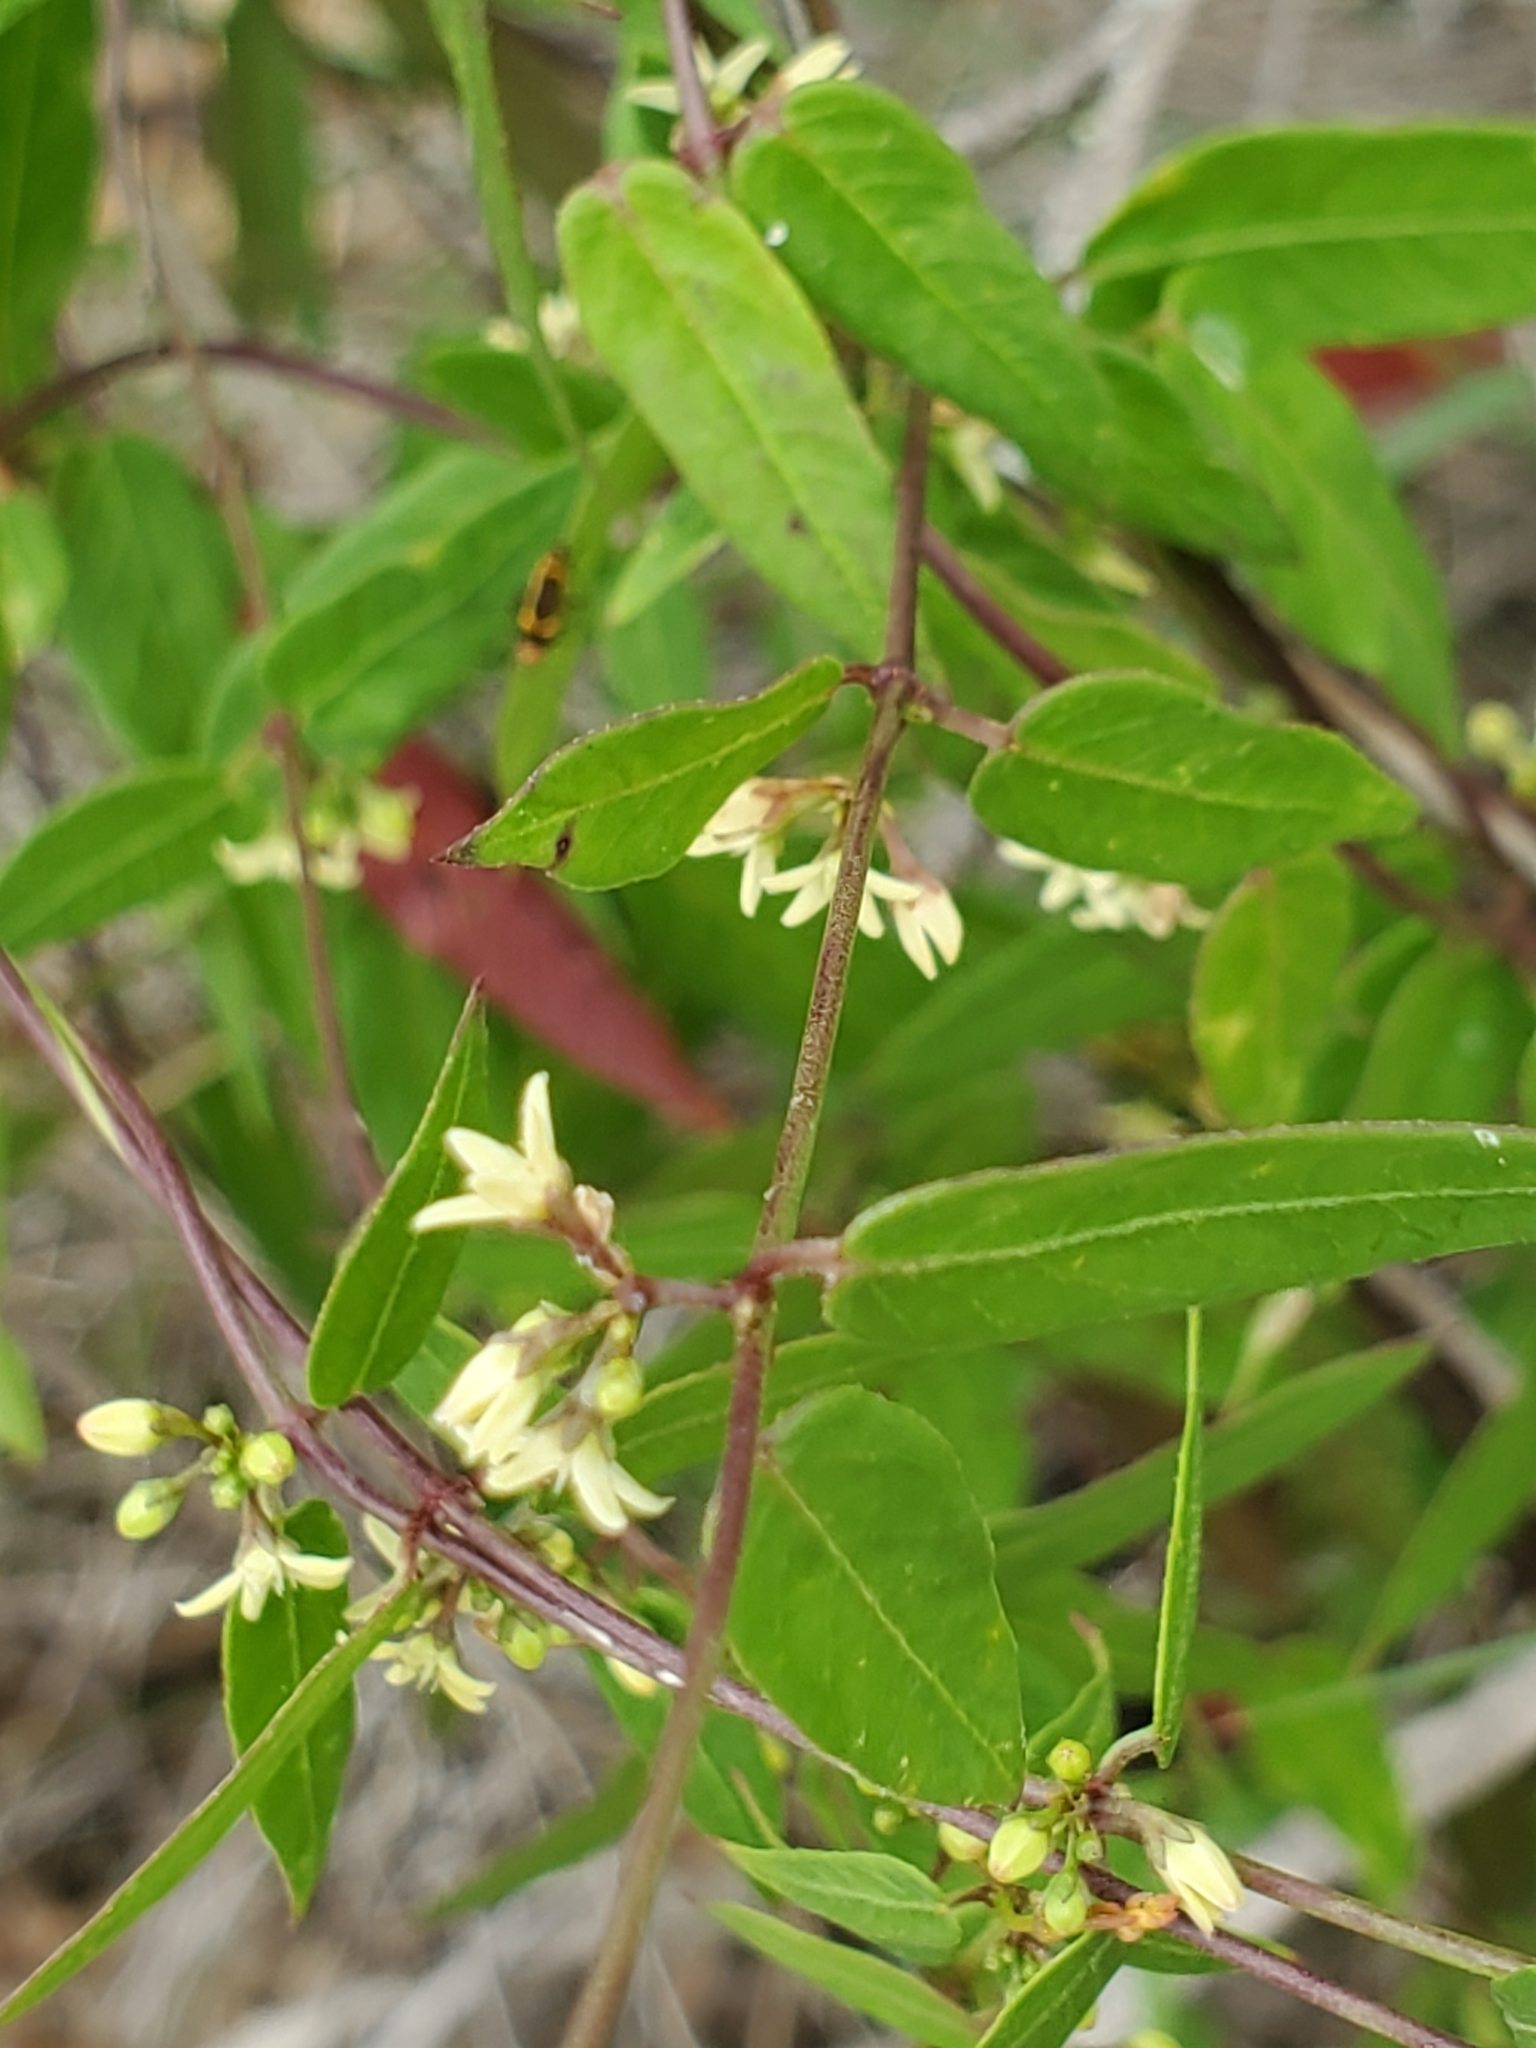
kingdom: Plantae
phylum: Tracheophyta
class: Magnoliopsida
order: Gentianales
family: Apocynaceae
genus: Metastelma
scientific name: Metastelma palmeri
